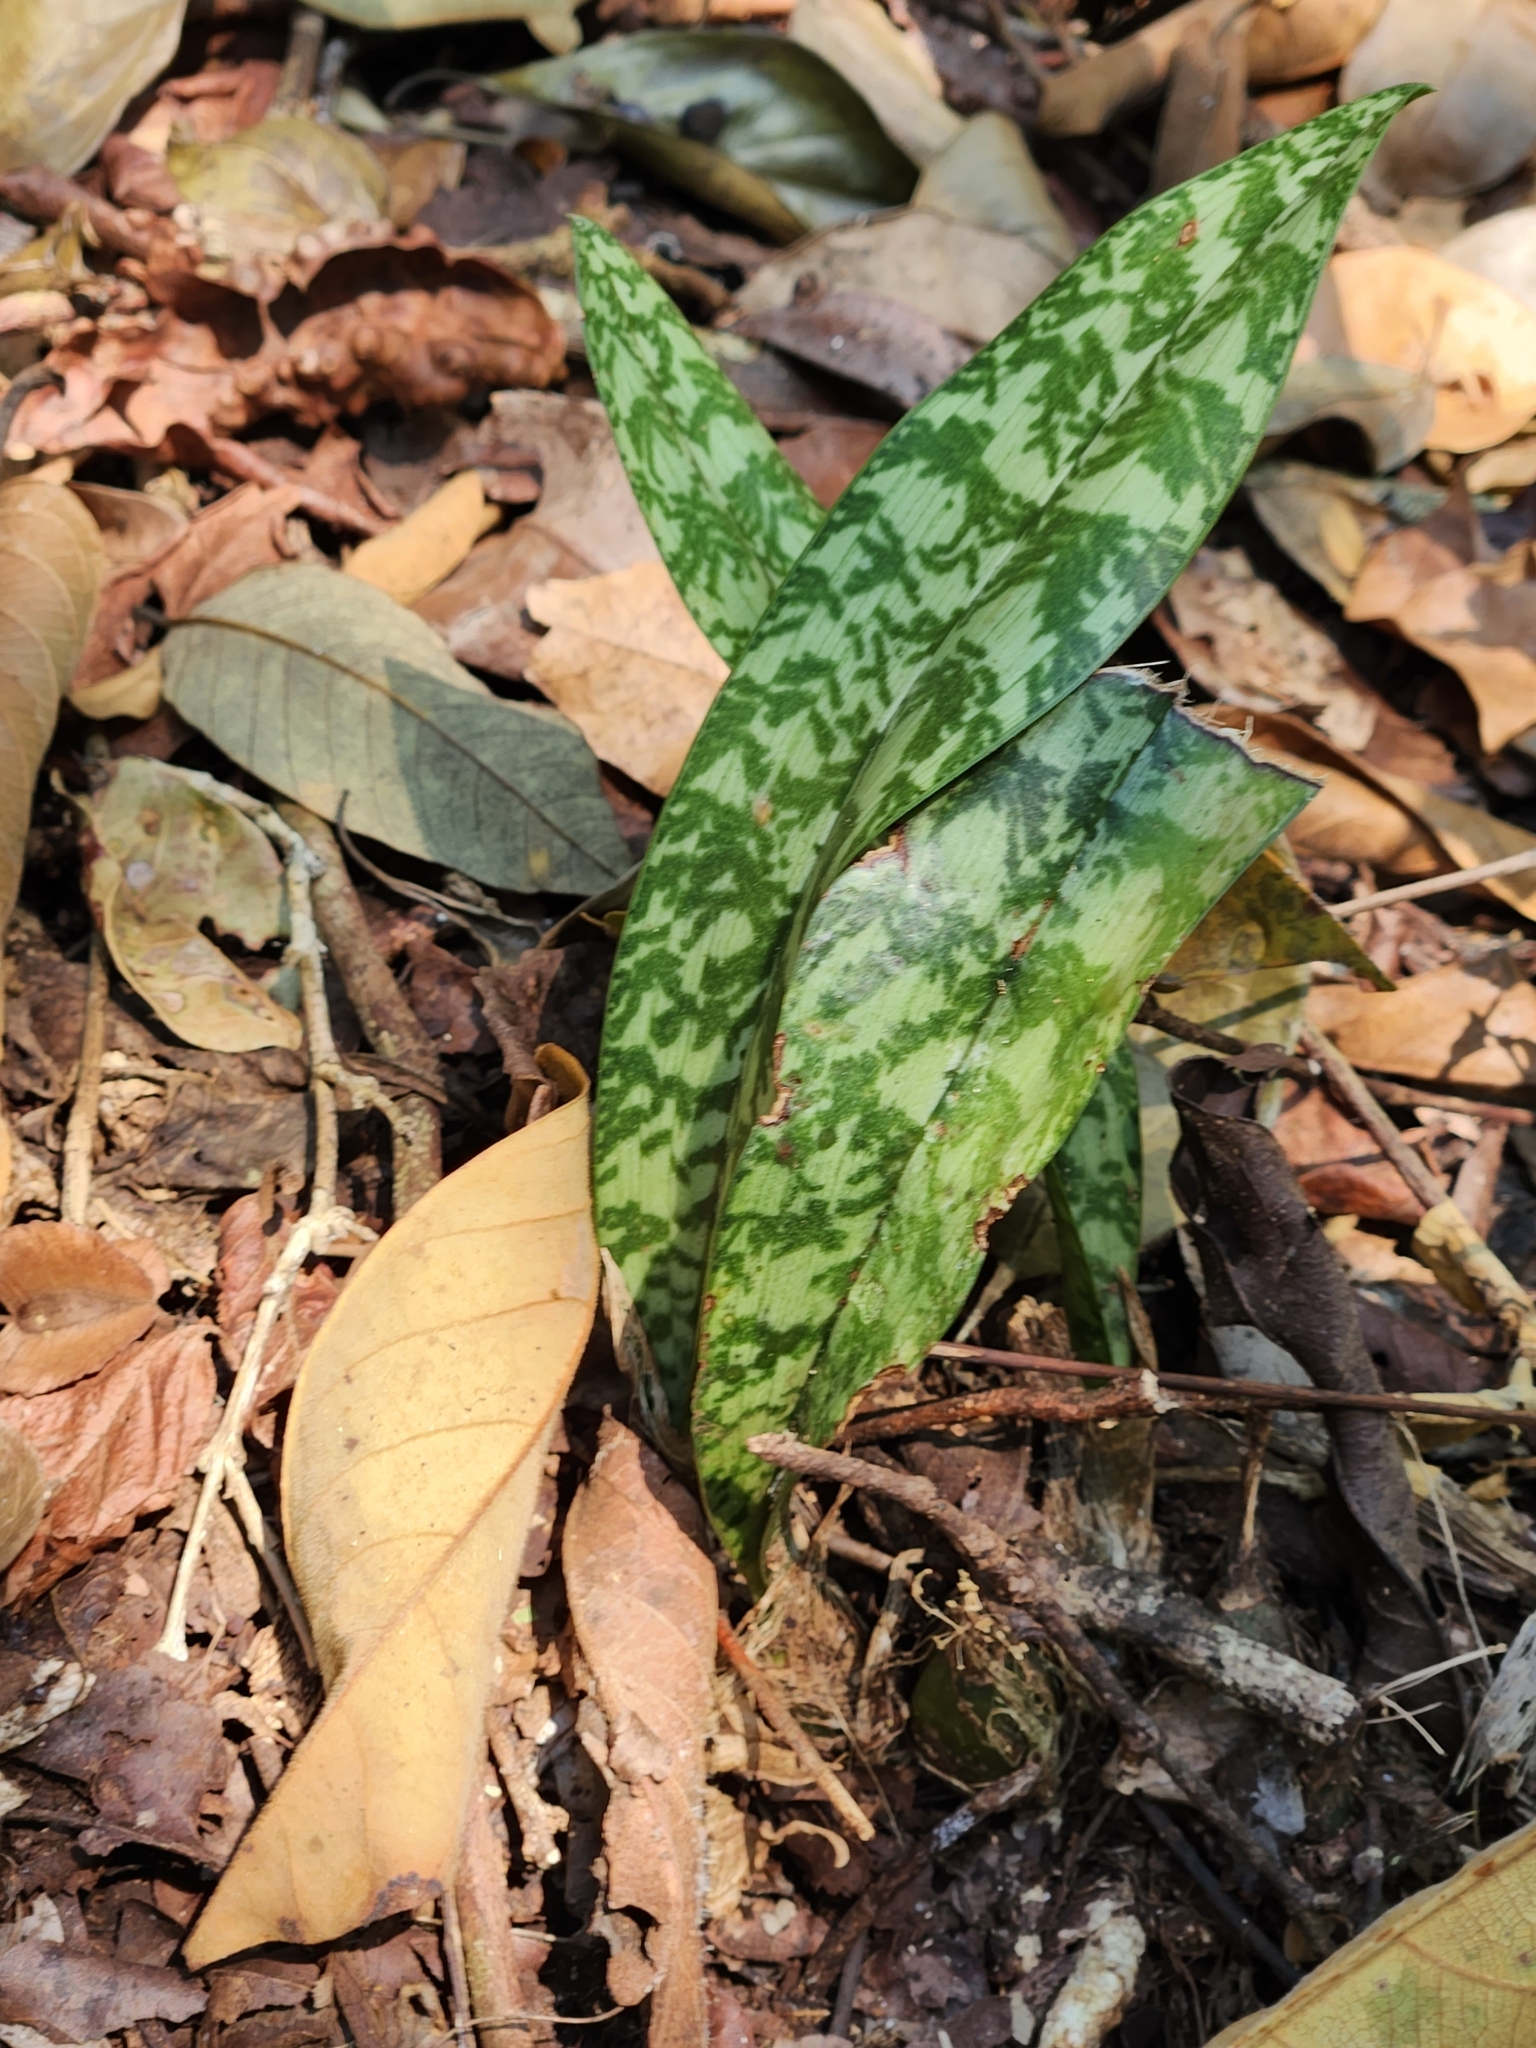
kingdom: Plantae
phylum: Tracheophyta
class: Liliopsida
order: Asparagales
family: Orchidaceae
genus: Eulophia
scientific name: Eulophia maculata
